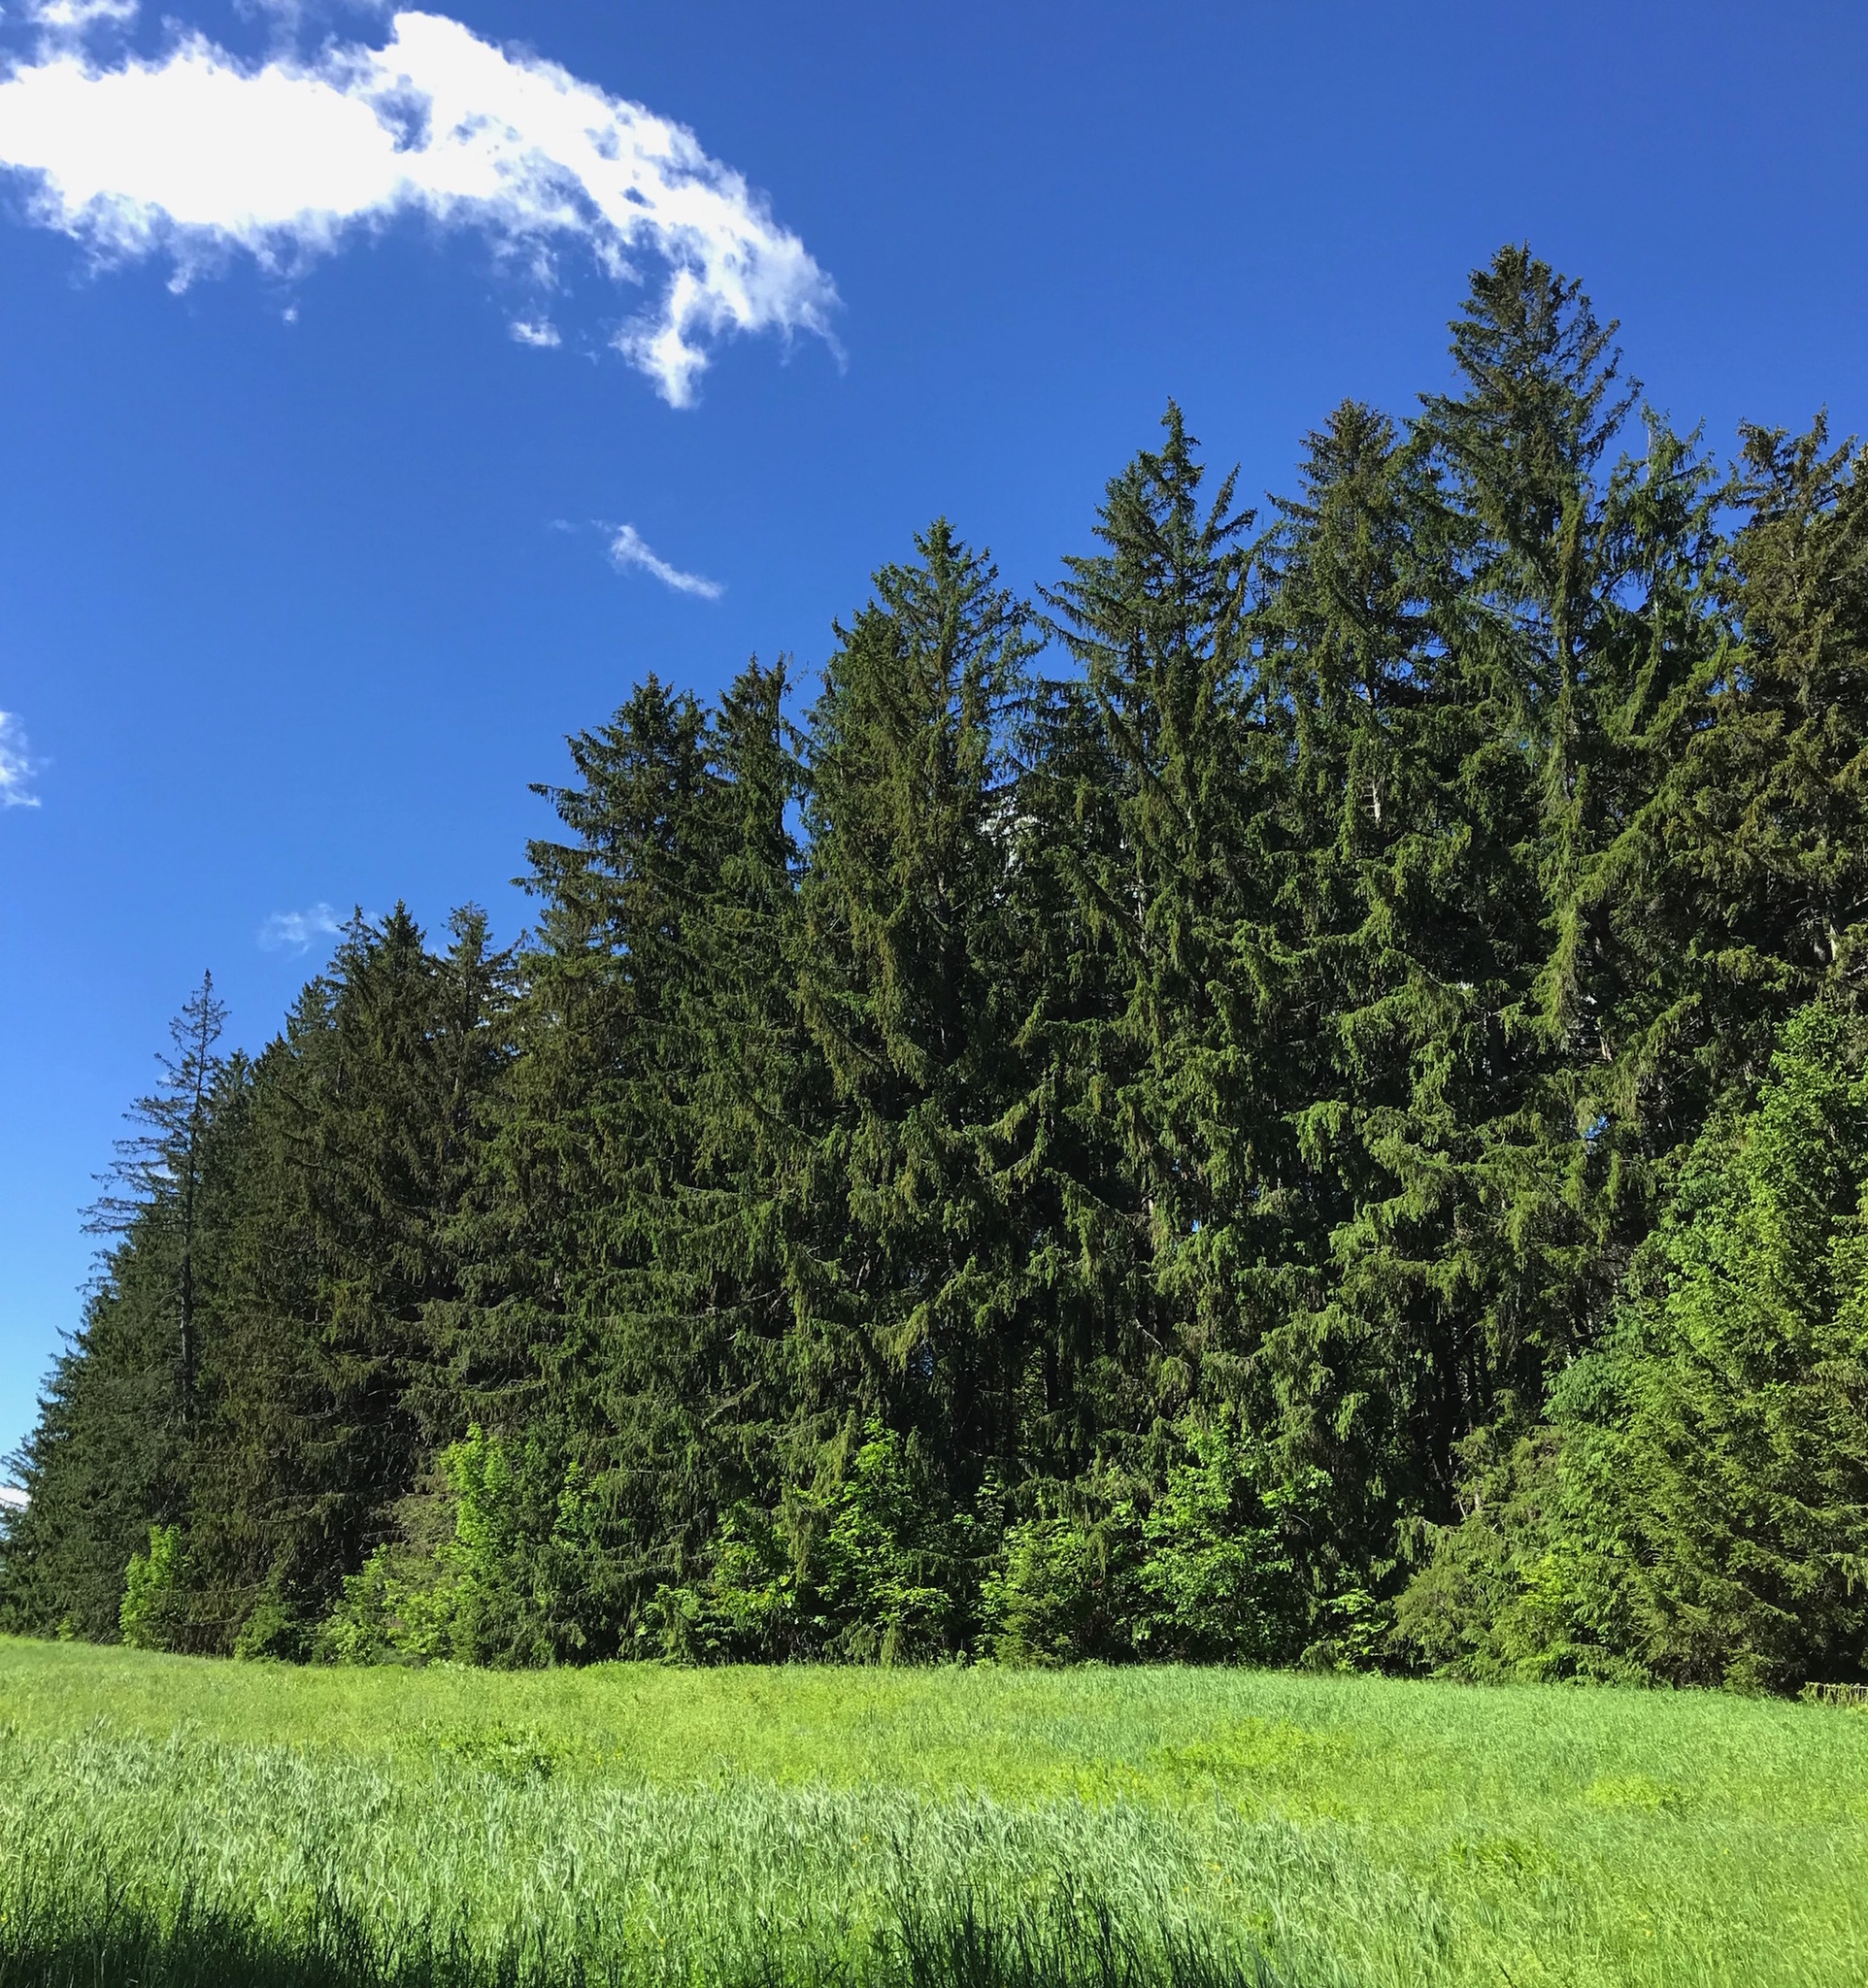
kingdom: Plantae
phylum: Tracheophyta
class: Pinopsida
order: Pinales
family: Pinaceae
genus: Picea
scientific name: Picea abies
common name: Norway spruce
